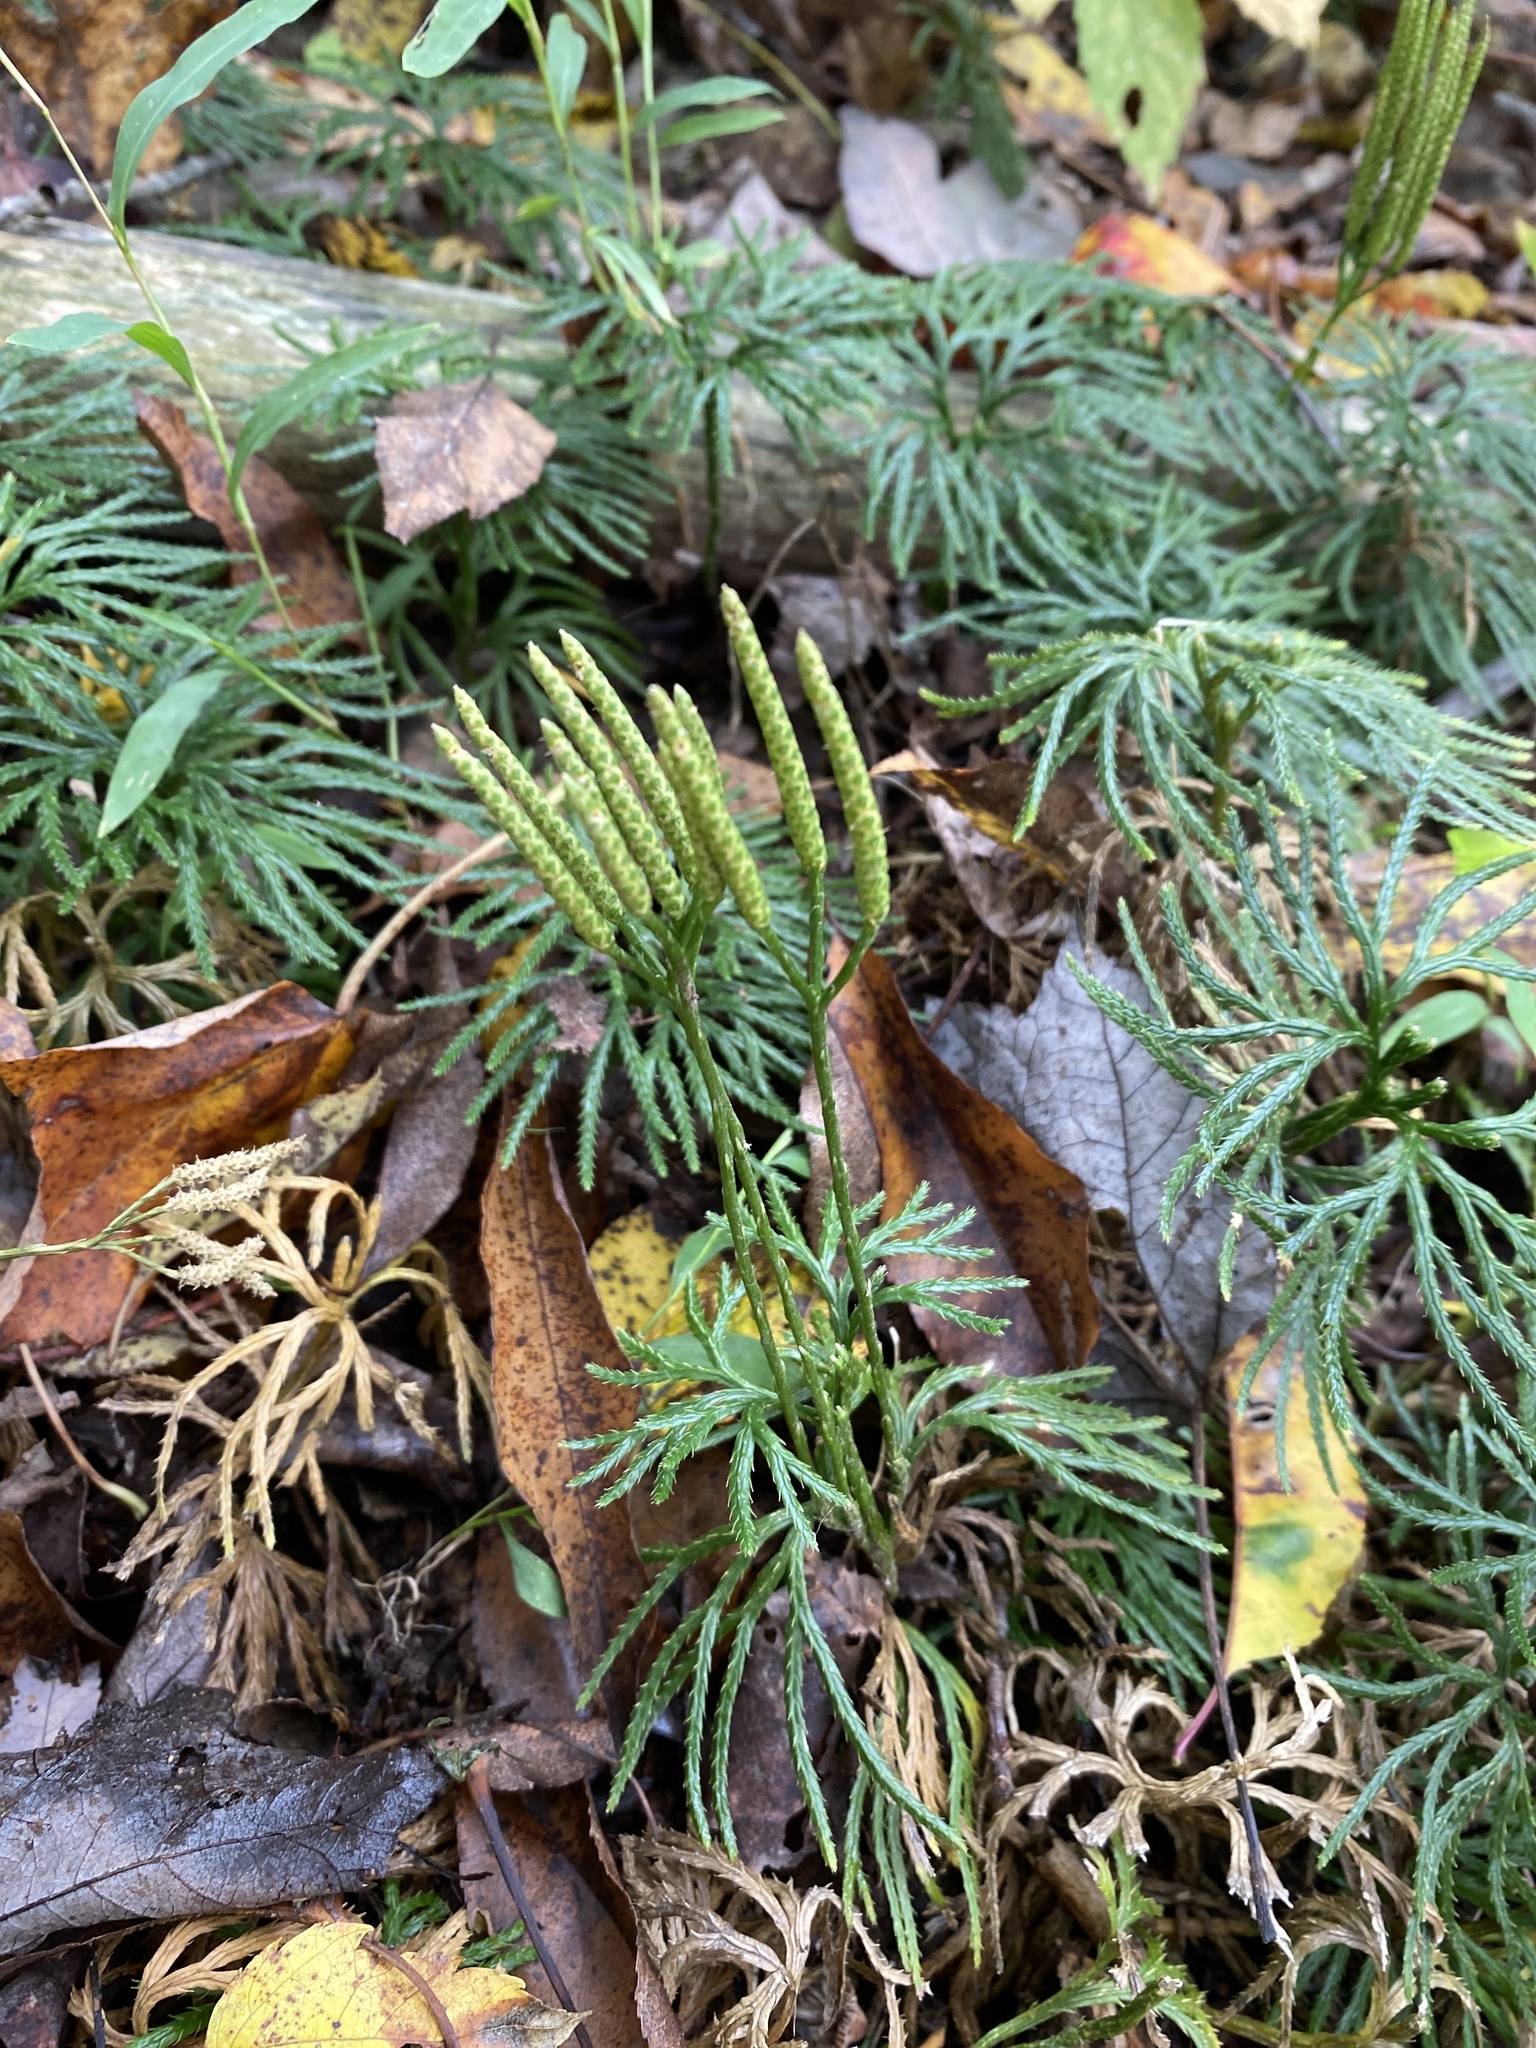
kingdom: Plantae
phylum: Tracheophyta
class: Lycopodiopsida
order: Lycopodiales
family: Lycopodiaceae
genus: Diphasiastrum
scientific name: Diphasiastrum digitatum
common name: Southern running-pine
